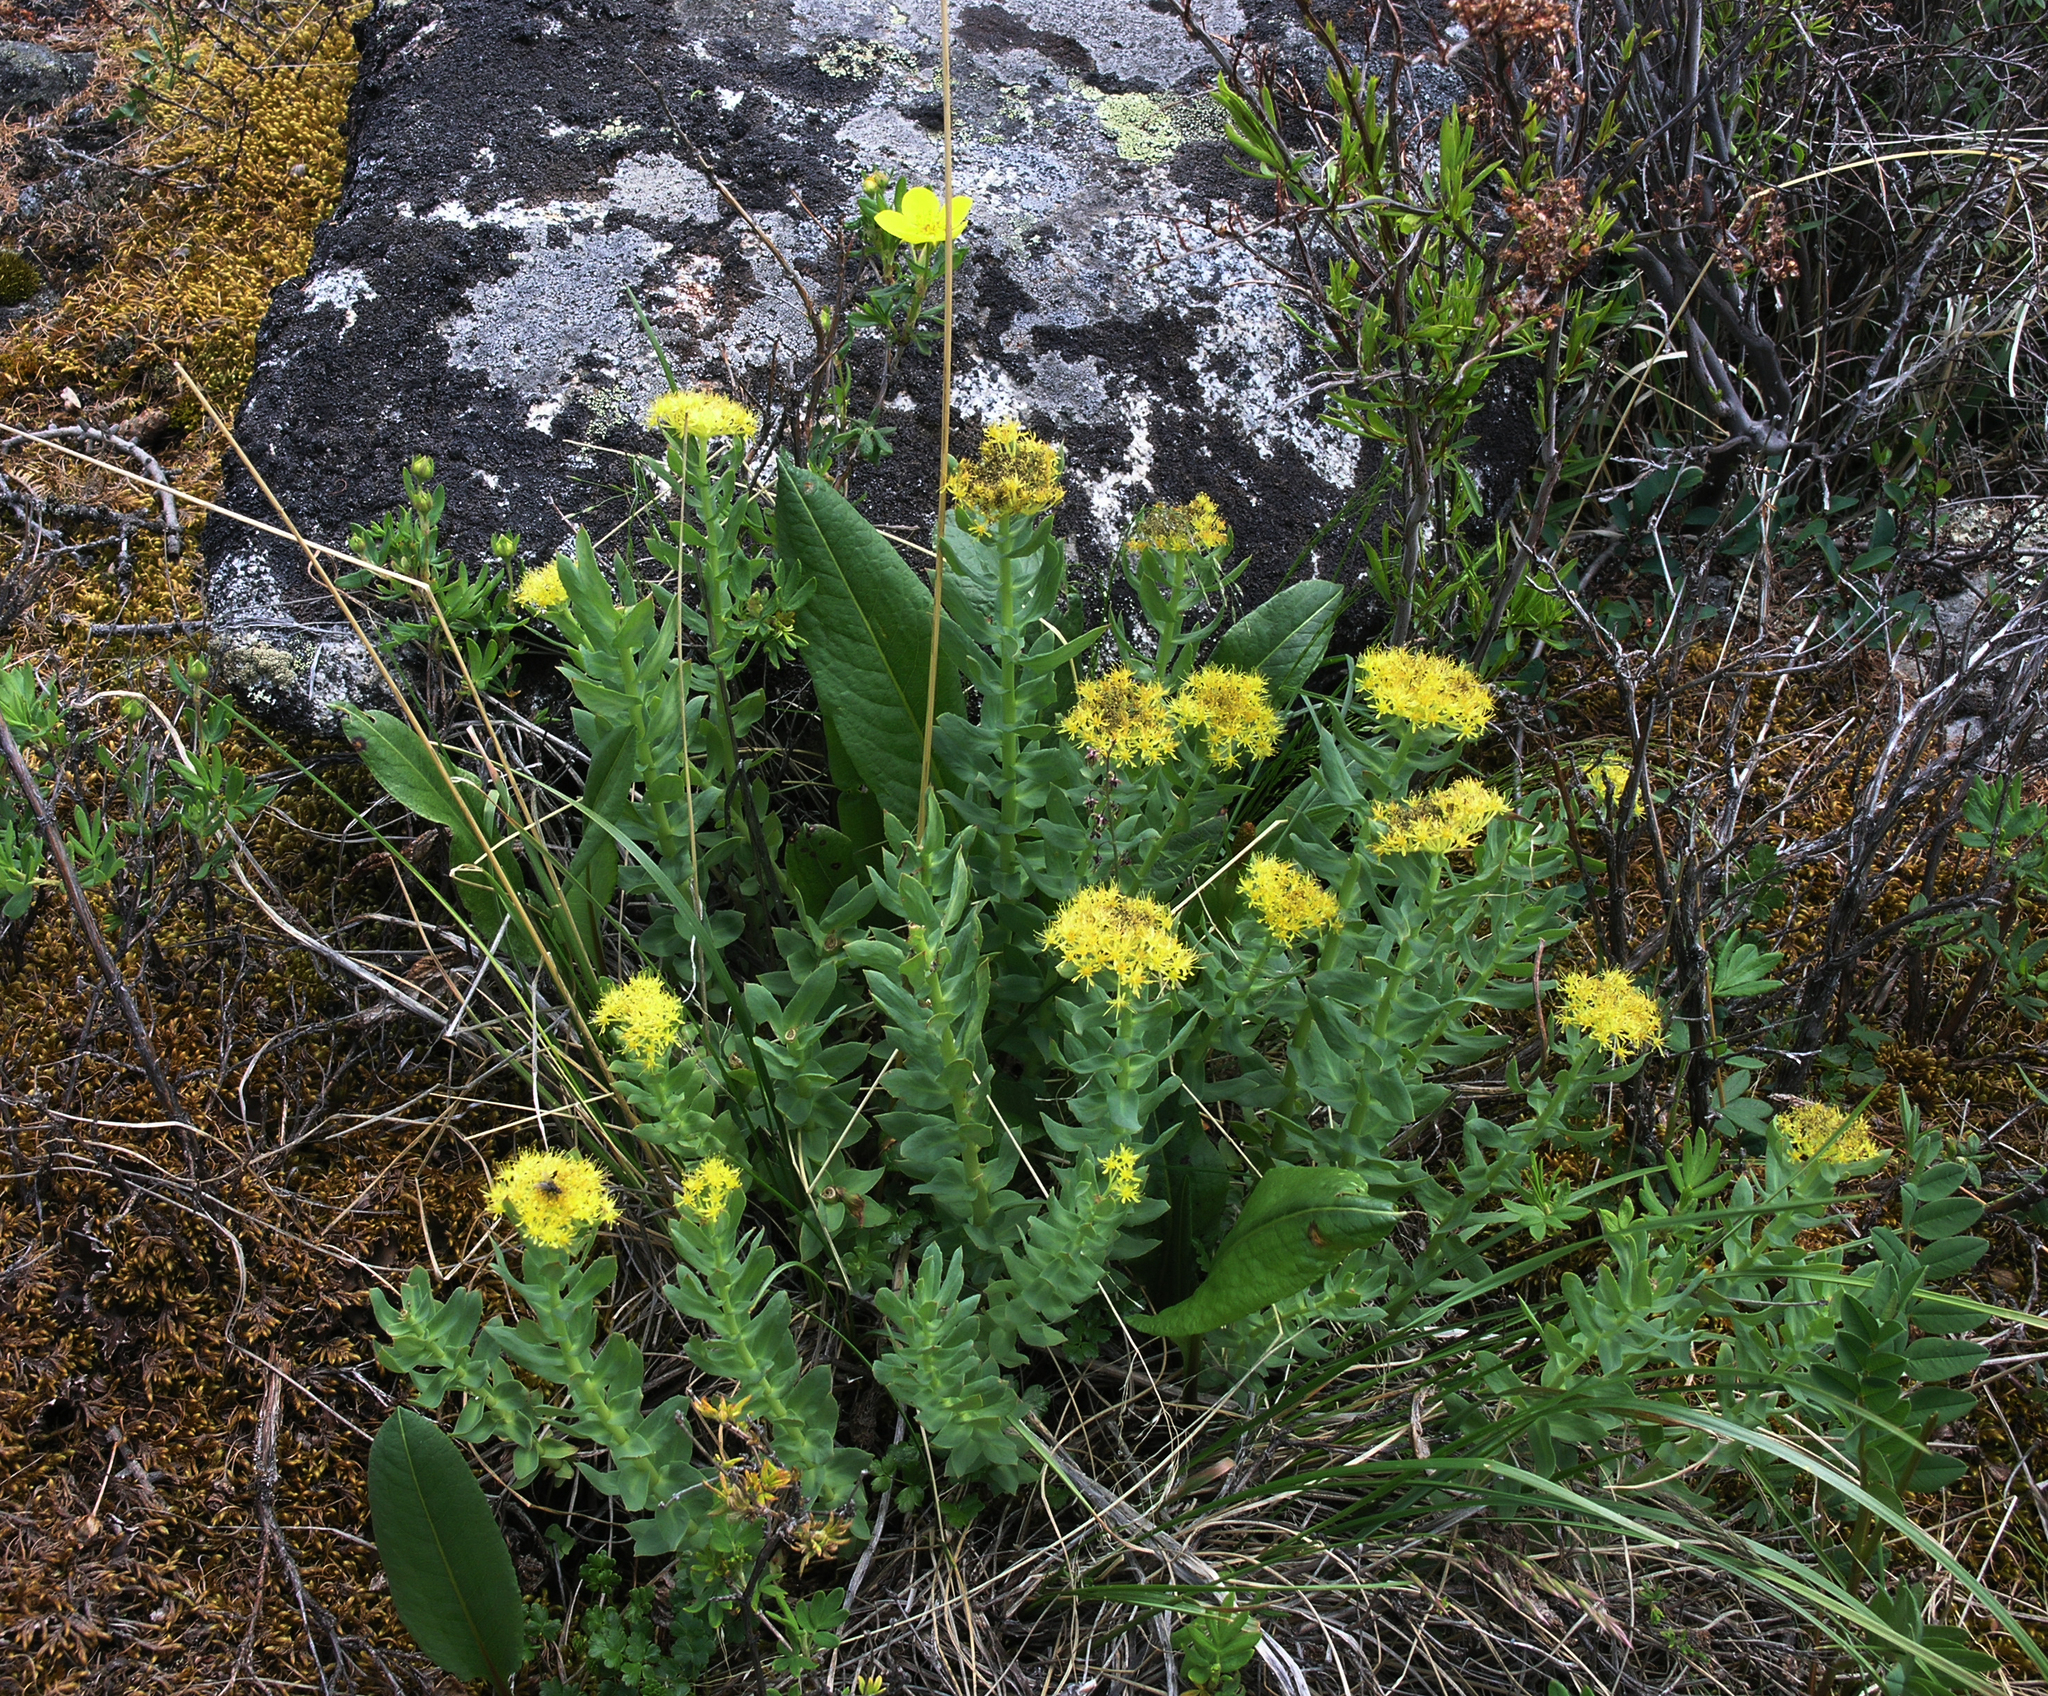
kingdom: Plantae
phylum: Tracheophyta
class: Magnoliopsida
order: Saxifragales
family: Crassulaceae
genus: Rhodiola
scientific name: Rhodiola rosea
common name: Roseroot
